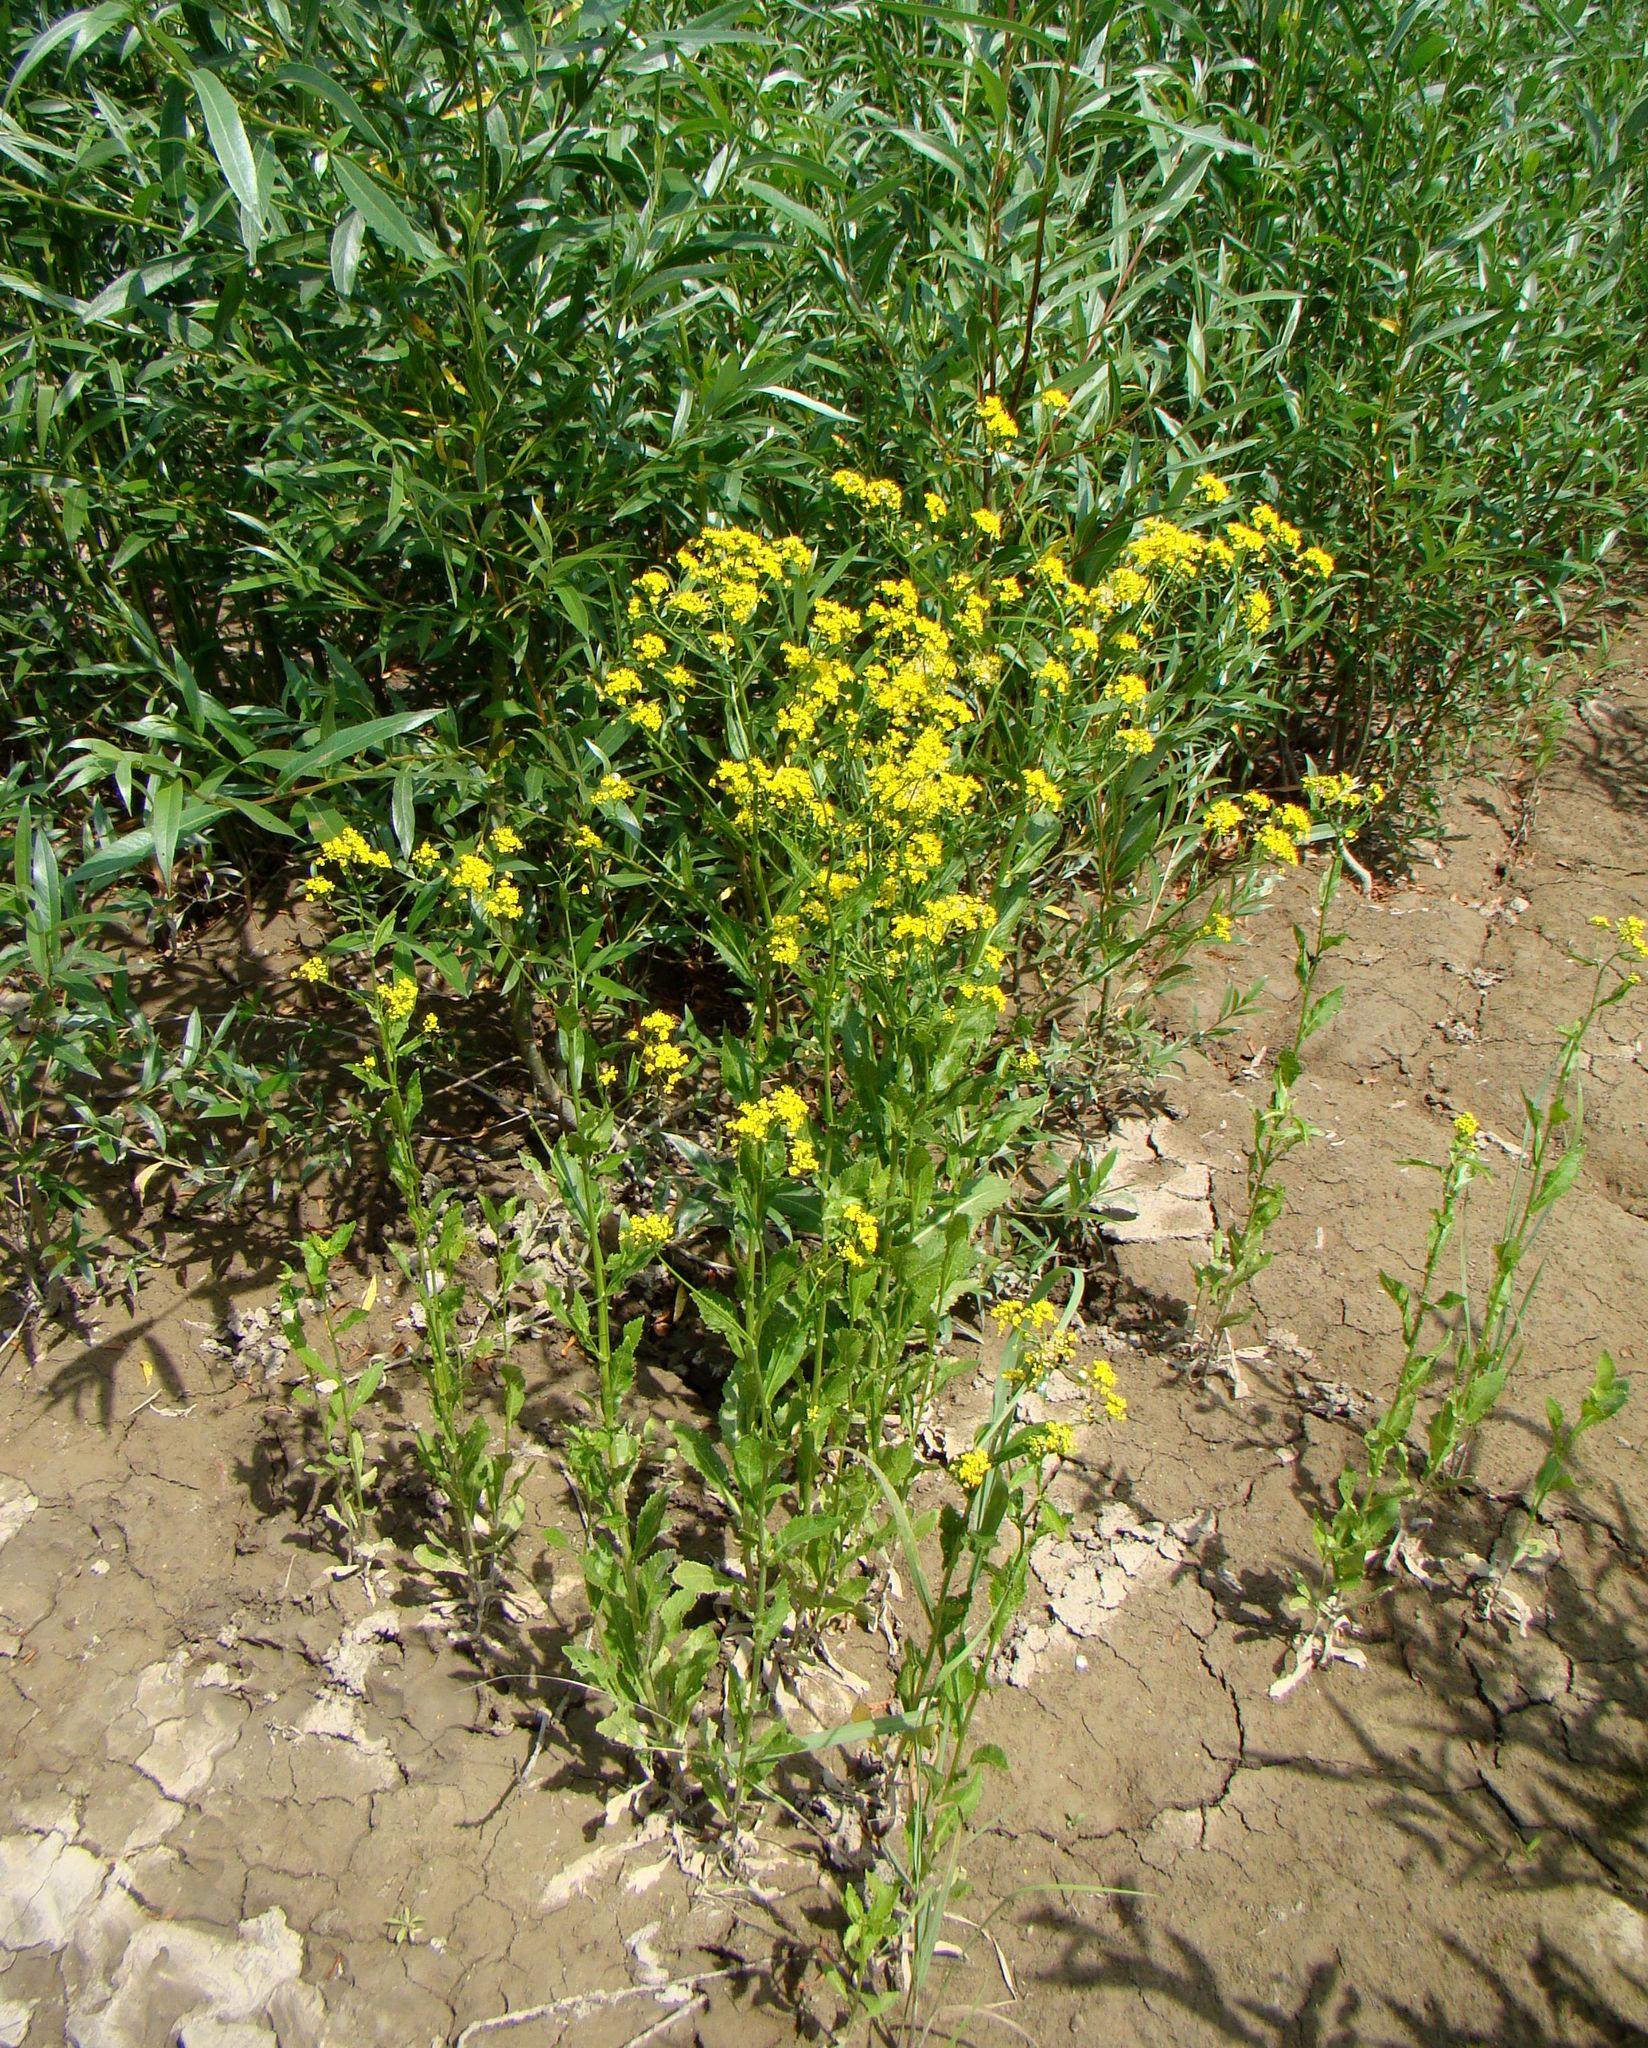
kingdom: Plantae
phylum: Tracheophyta
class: Magnoliopsida
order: Brassicales
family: Brassicaceae
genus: Rorippa
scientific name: Rorippa austriaca
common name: Austrian yellow-cress
